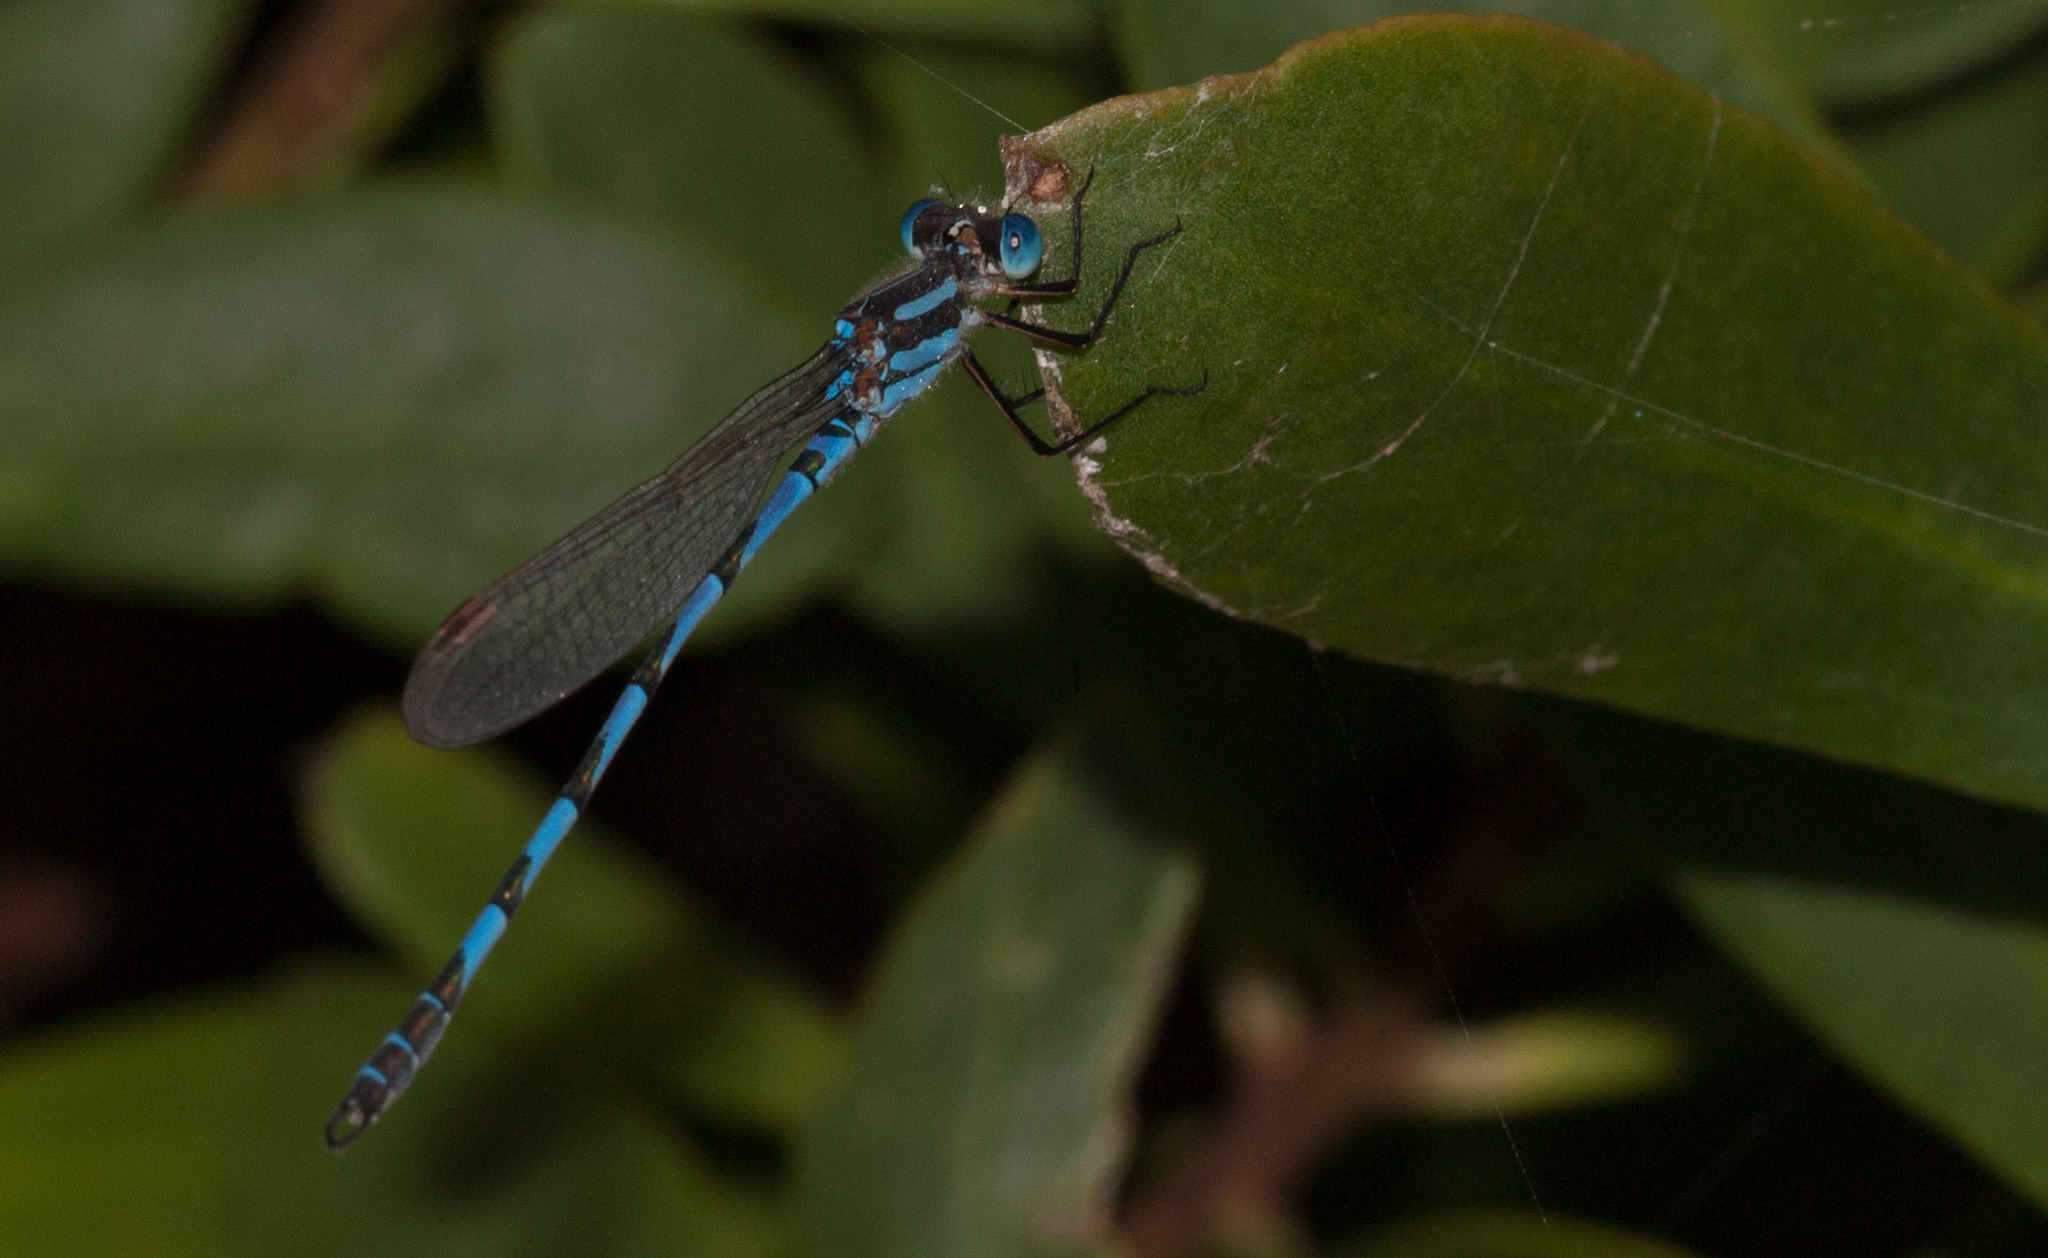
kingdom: Animalia
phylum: Arthropoda
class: Insecta
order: Odonata
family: Lestidae
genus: Austrolestes
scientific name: Austrolestes annulosus
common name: Blue ringtail
